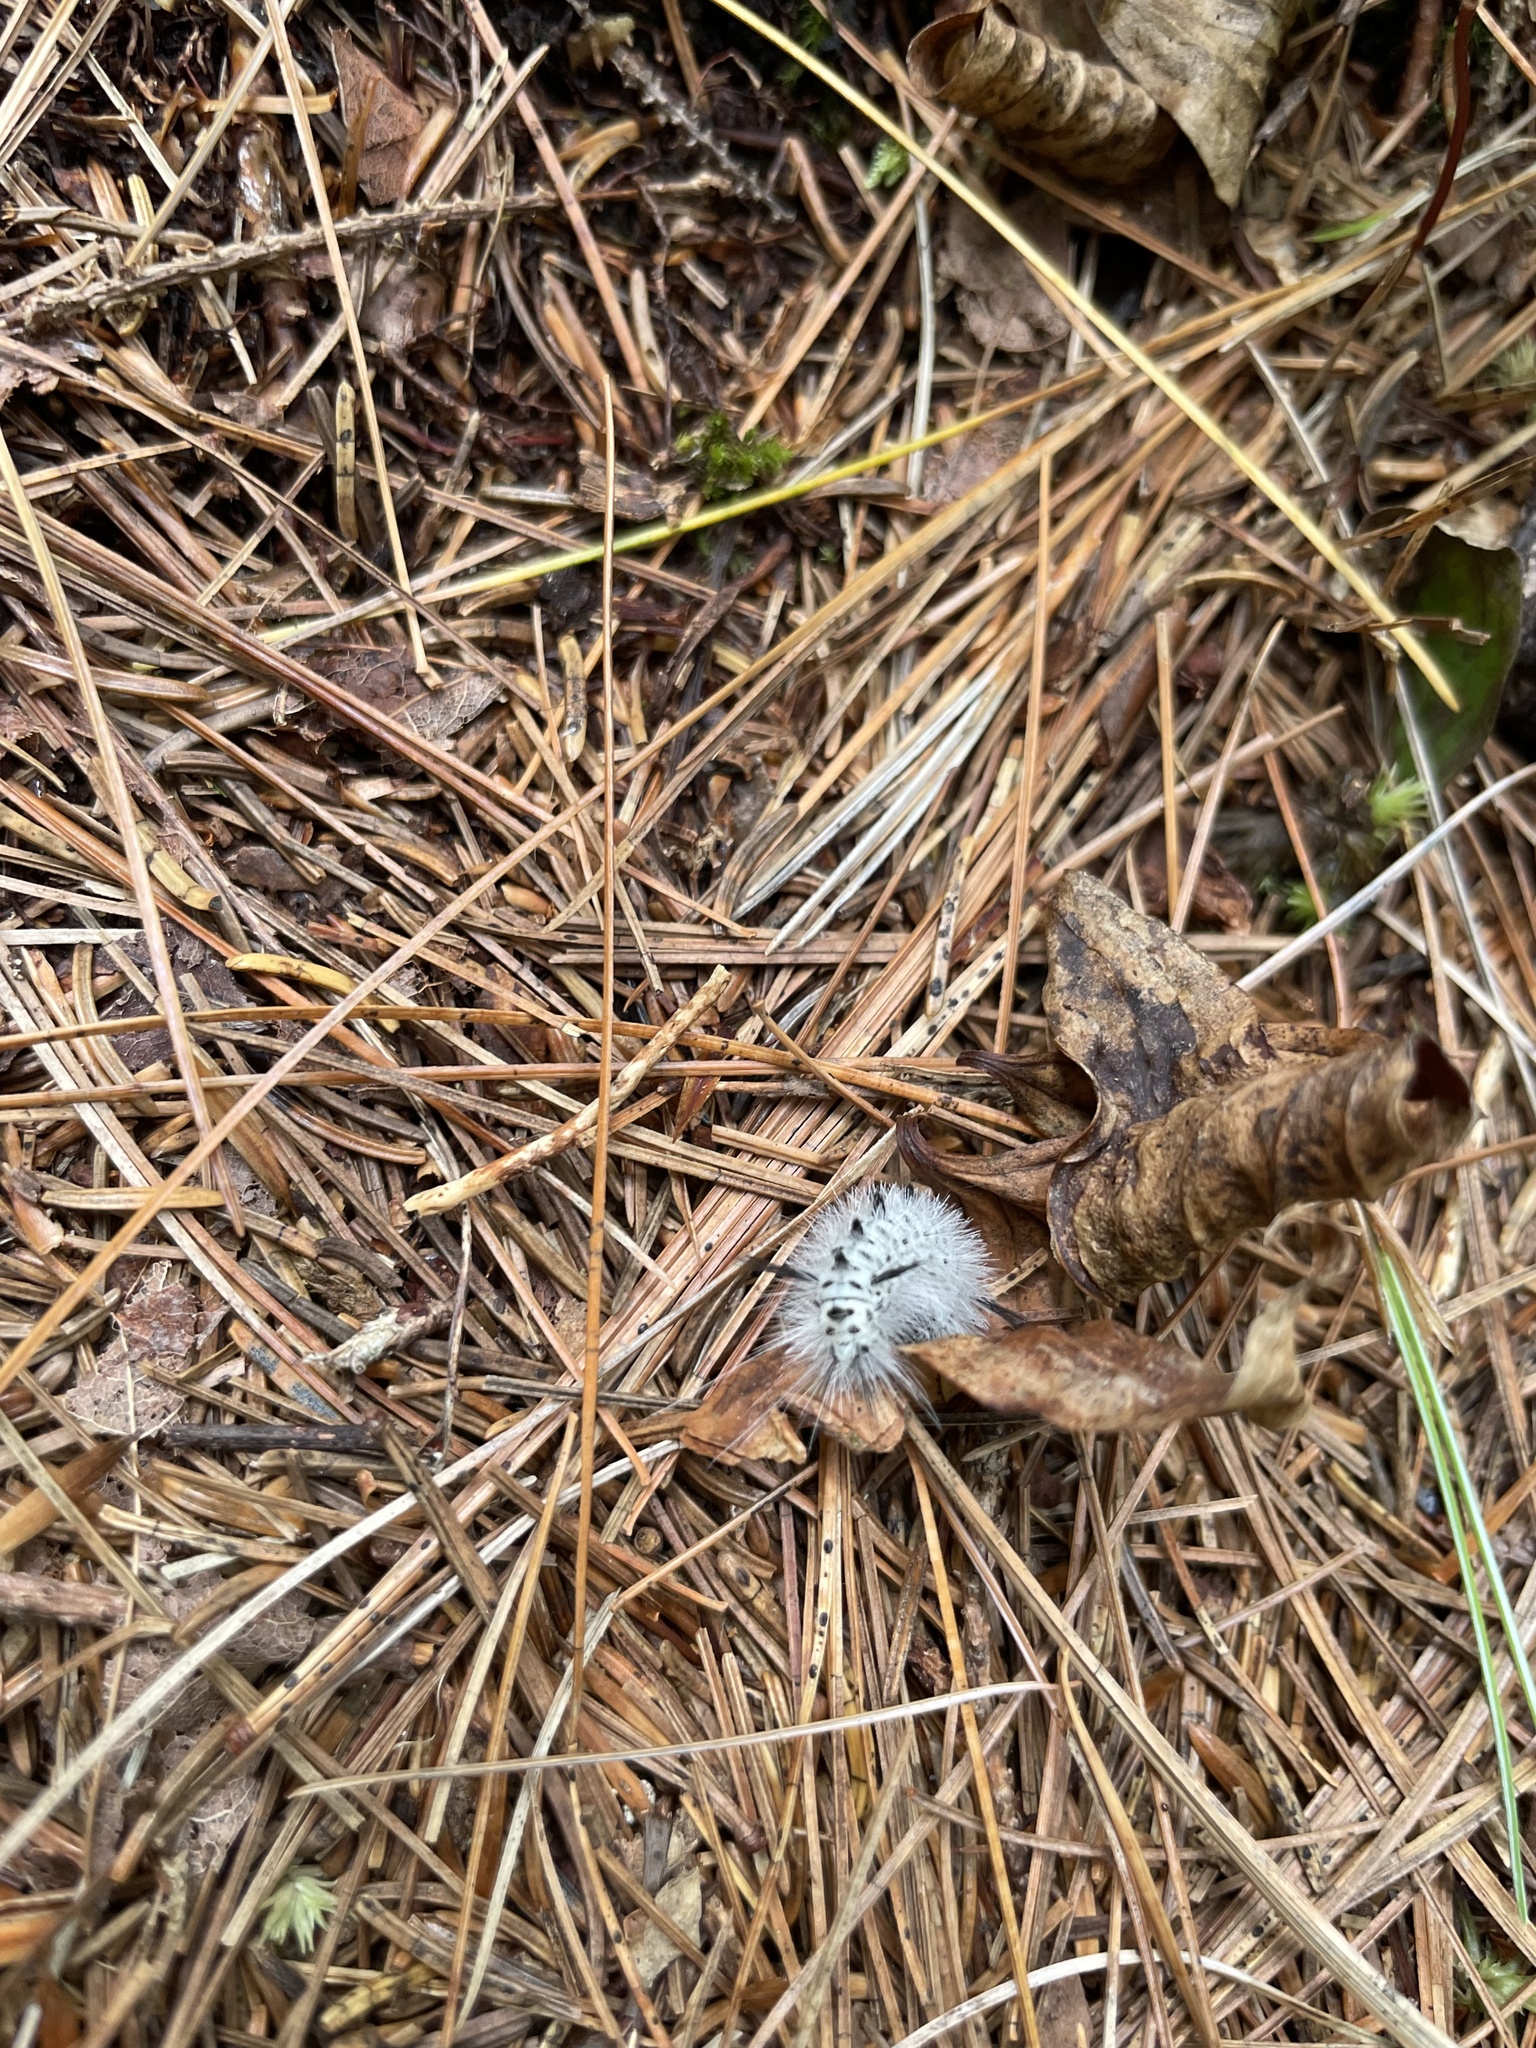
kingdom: Animalia
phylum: Arthropoda
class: Insecta
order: Lepidoptera
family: Erebidae
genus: Lophocampa
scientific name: Lophocampa caryae
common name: Hickory tussock moth
